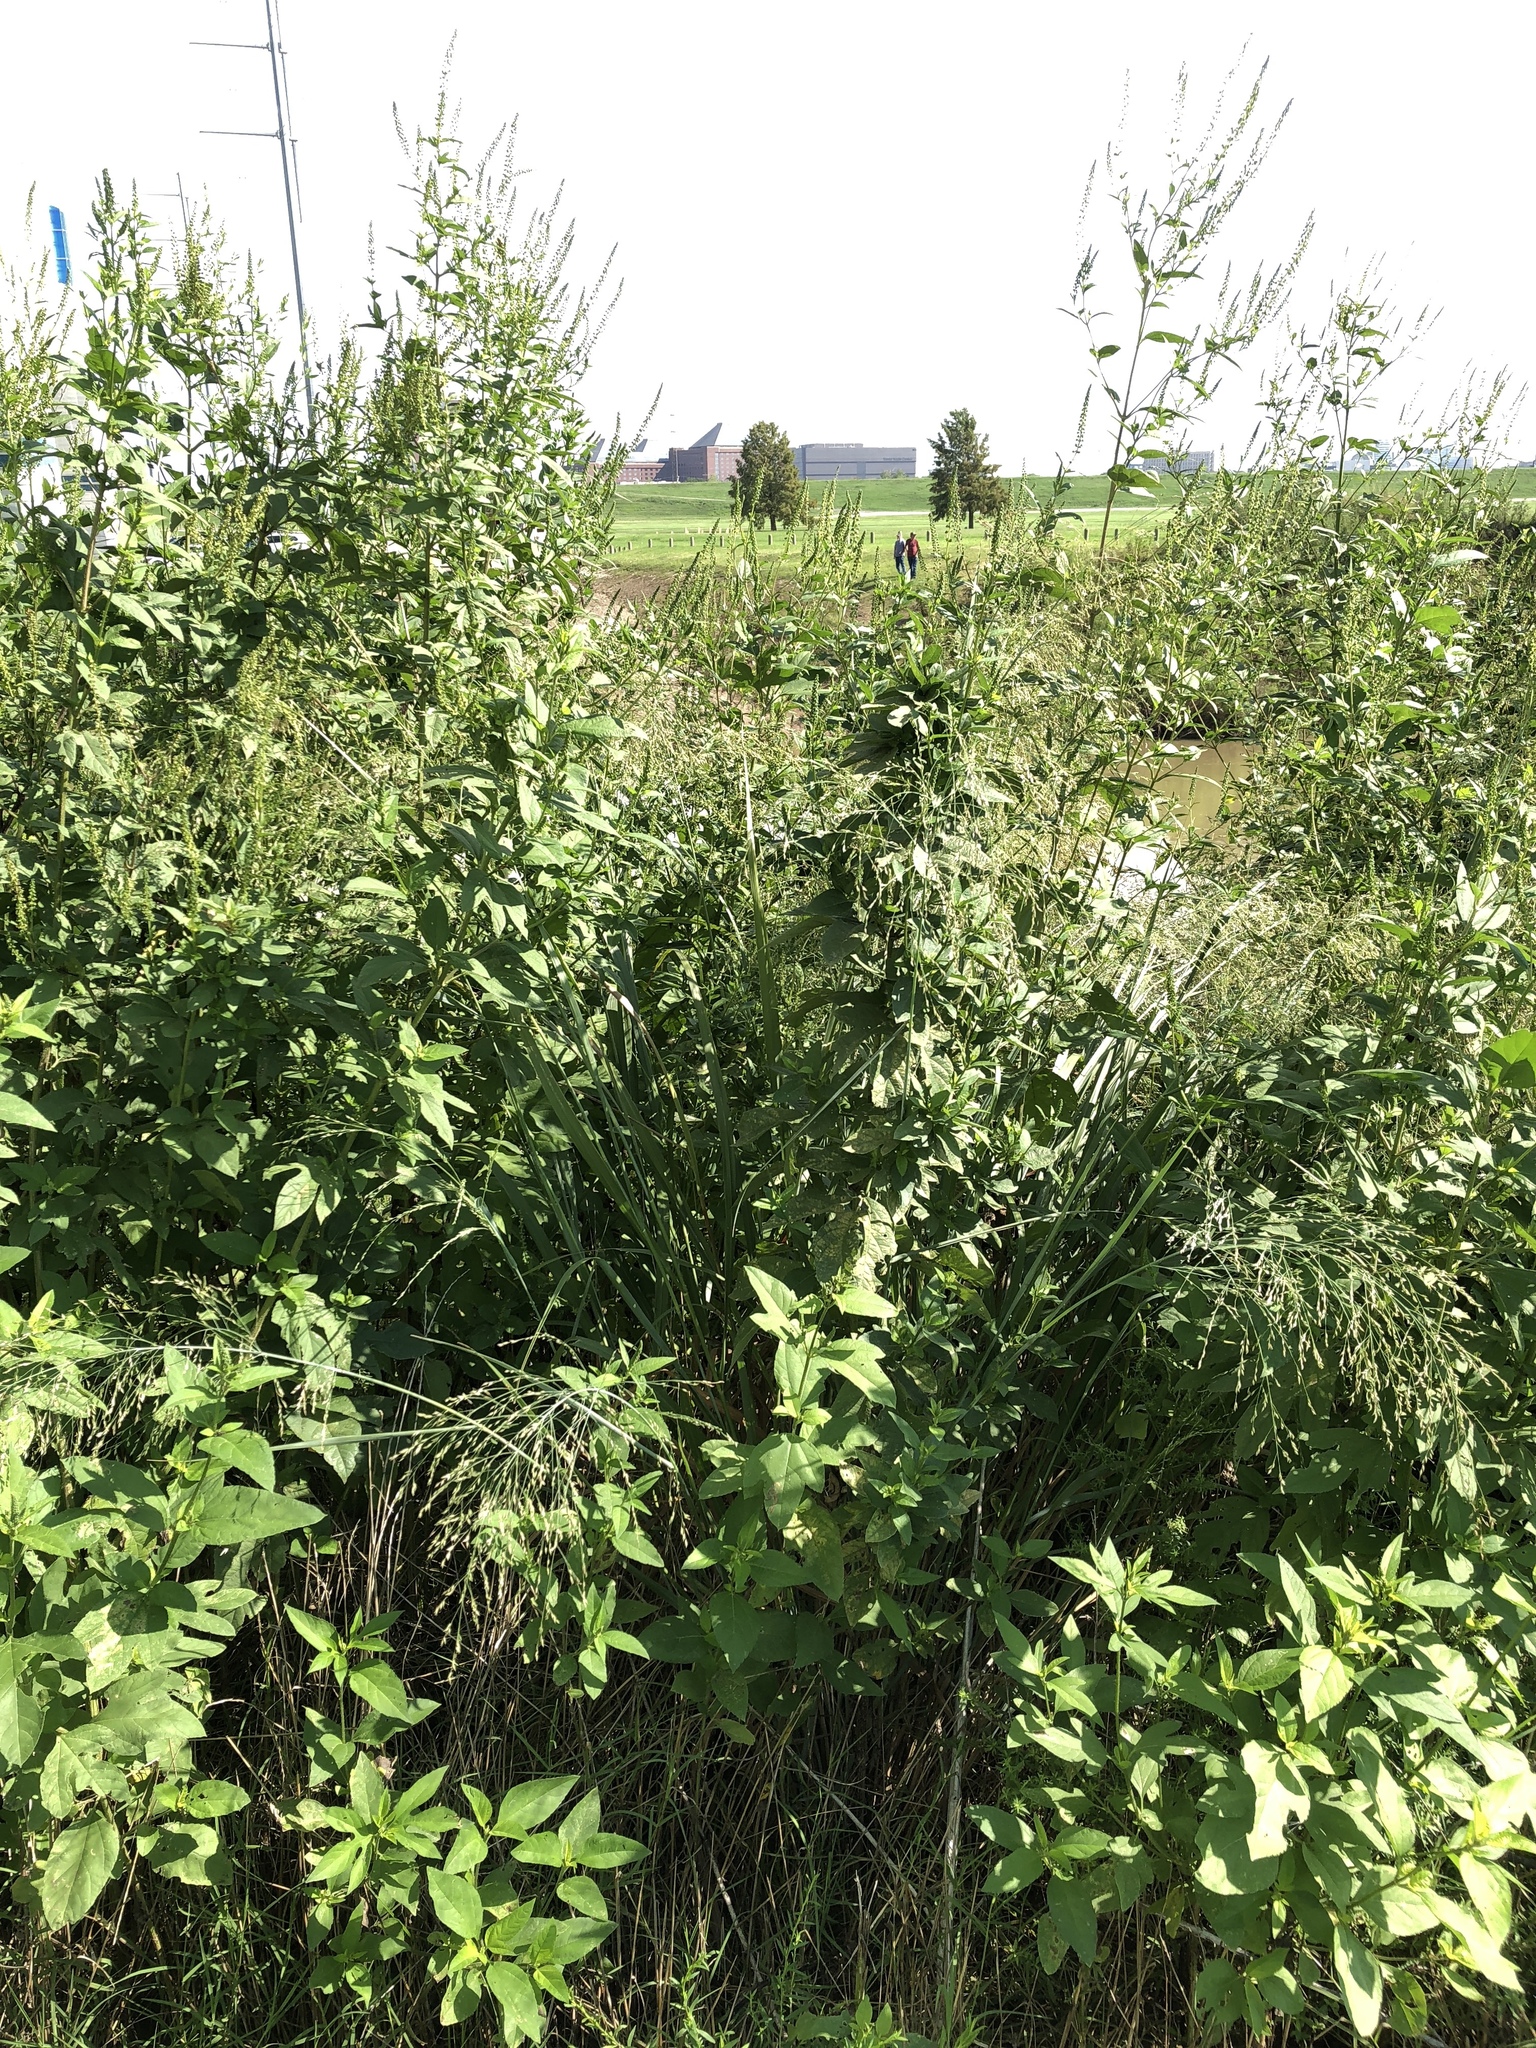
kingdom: Plantae
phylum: Tracheophyta
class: Liliopsida
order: Poales
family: Poaceae
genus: Panicum
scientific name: Panicum virgatum
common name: Switchgrass
